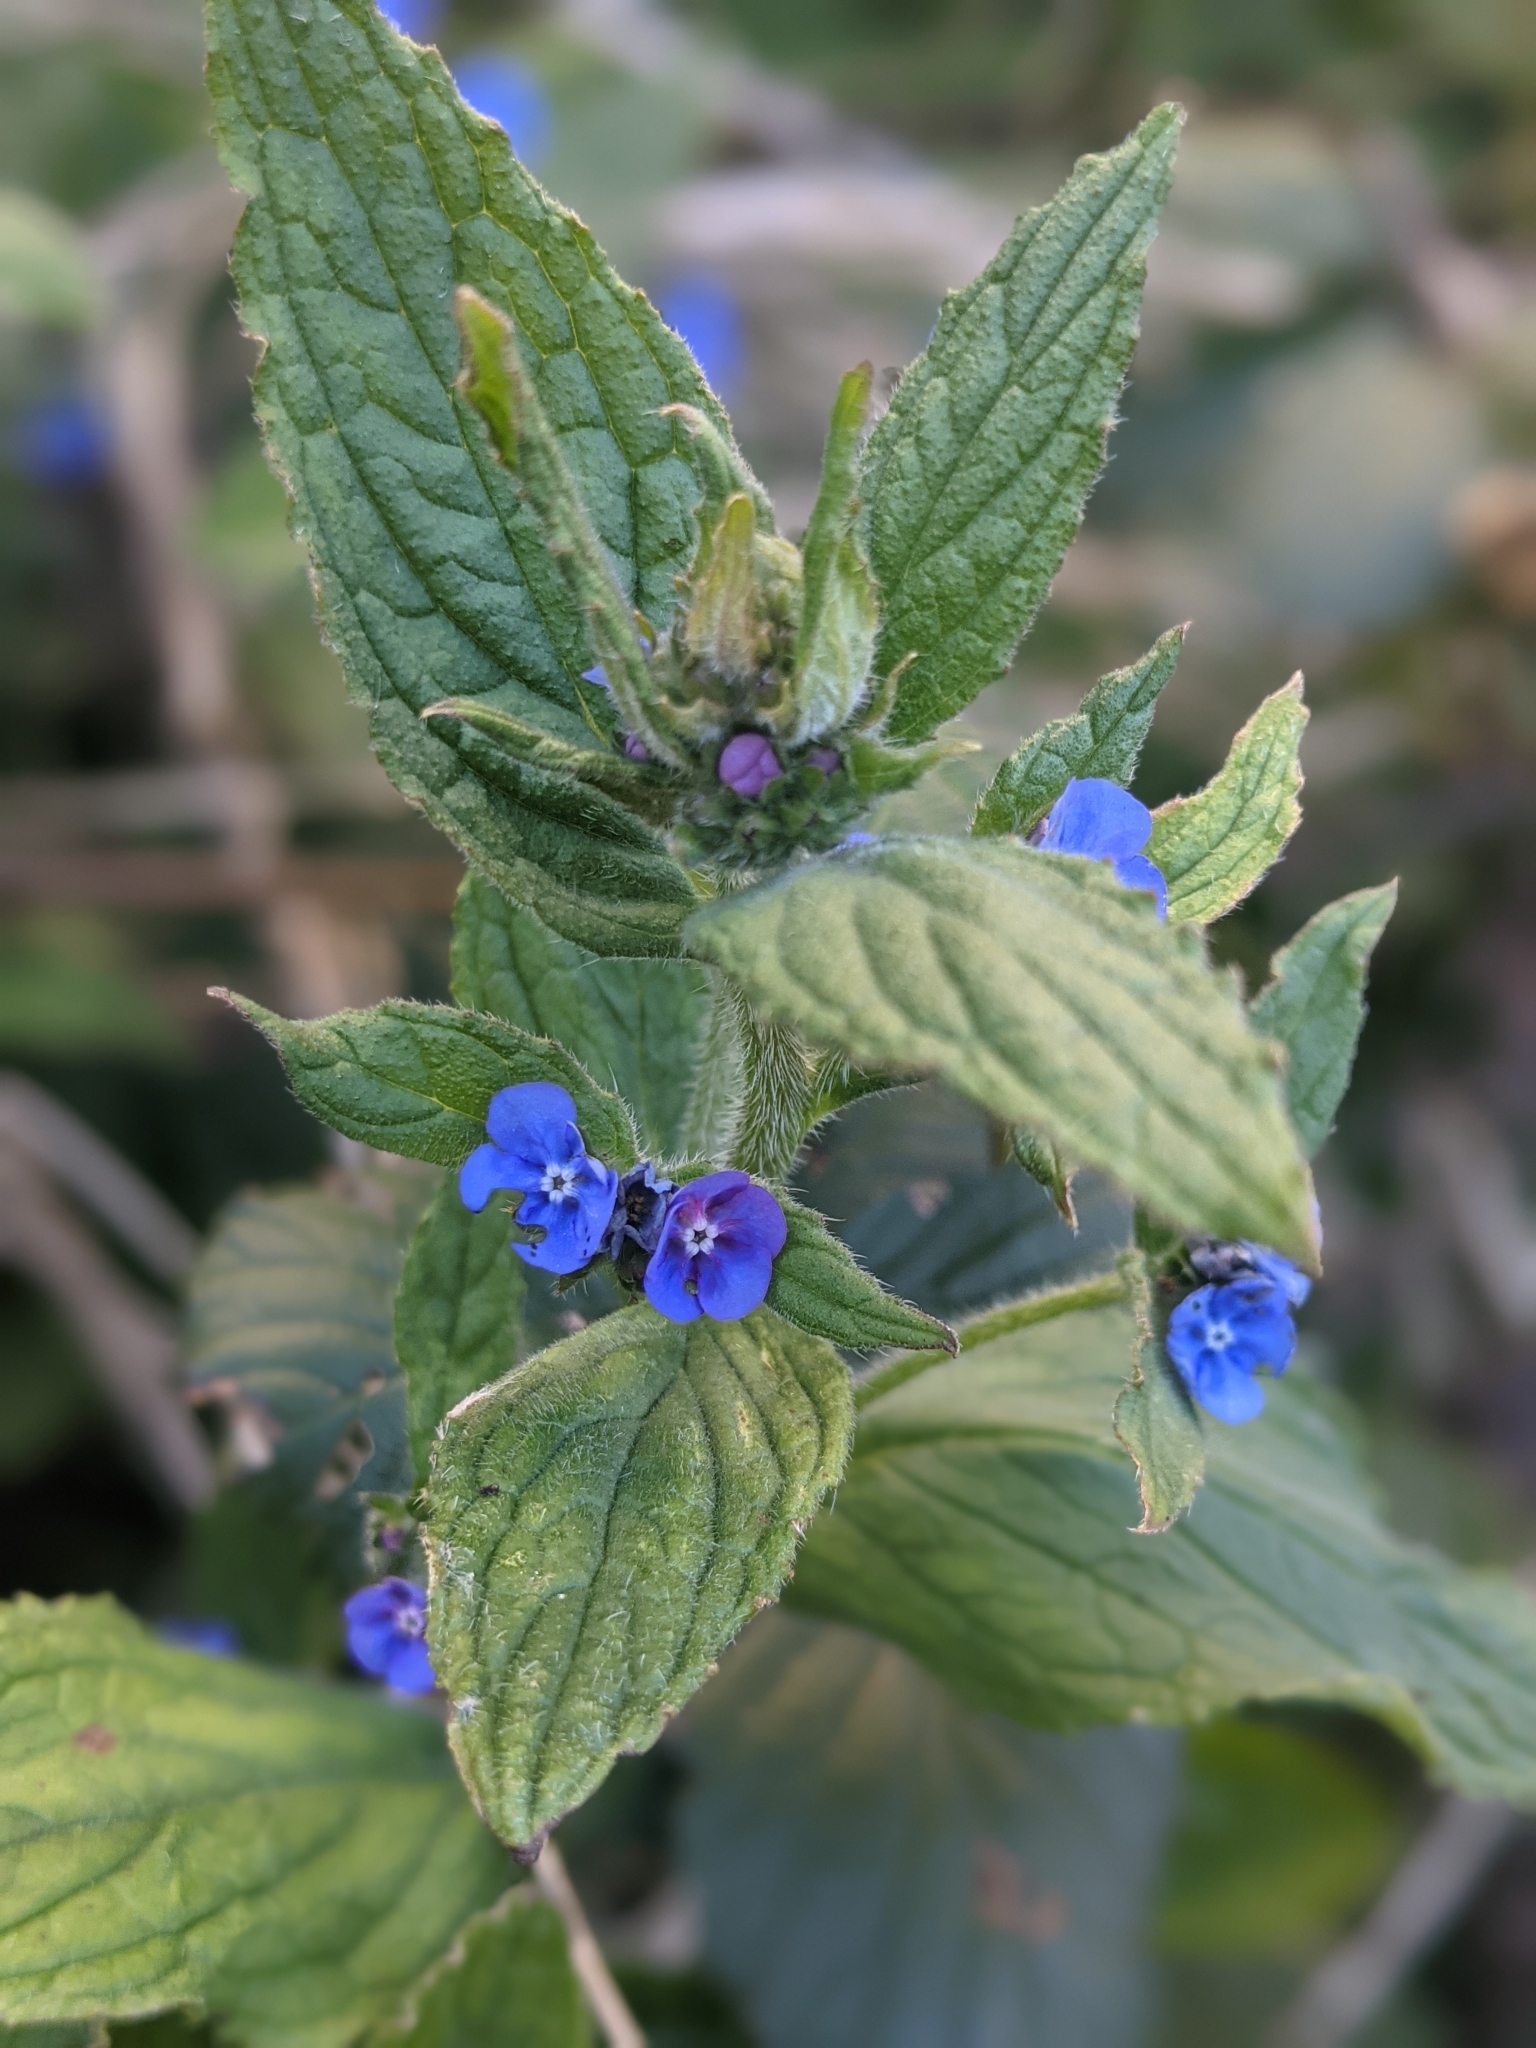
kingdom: Plantae
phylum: Tracheophyta
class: Magnoliopsida
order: Boraginales
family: Boraginaceae
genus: Pentaglottis
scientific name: Pentaglottis sempervirens
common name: Green alkanet
